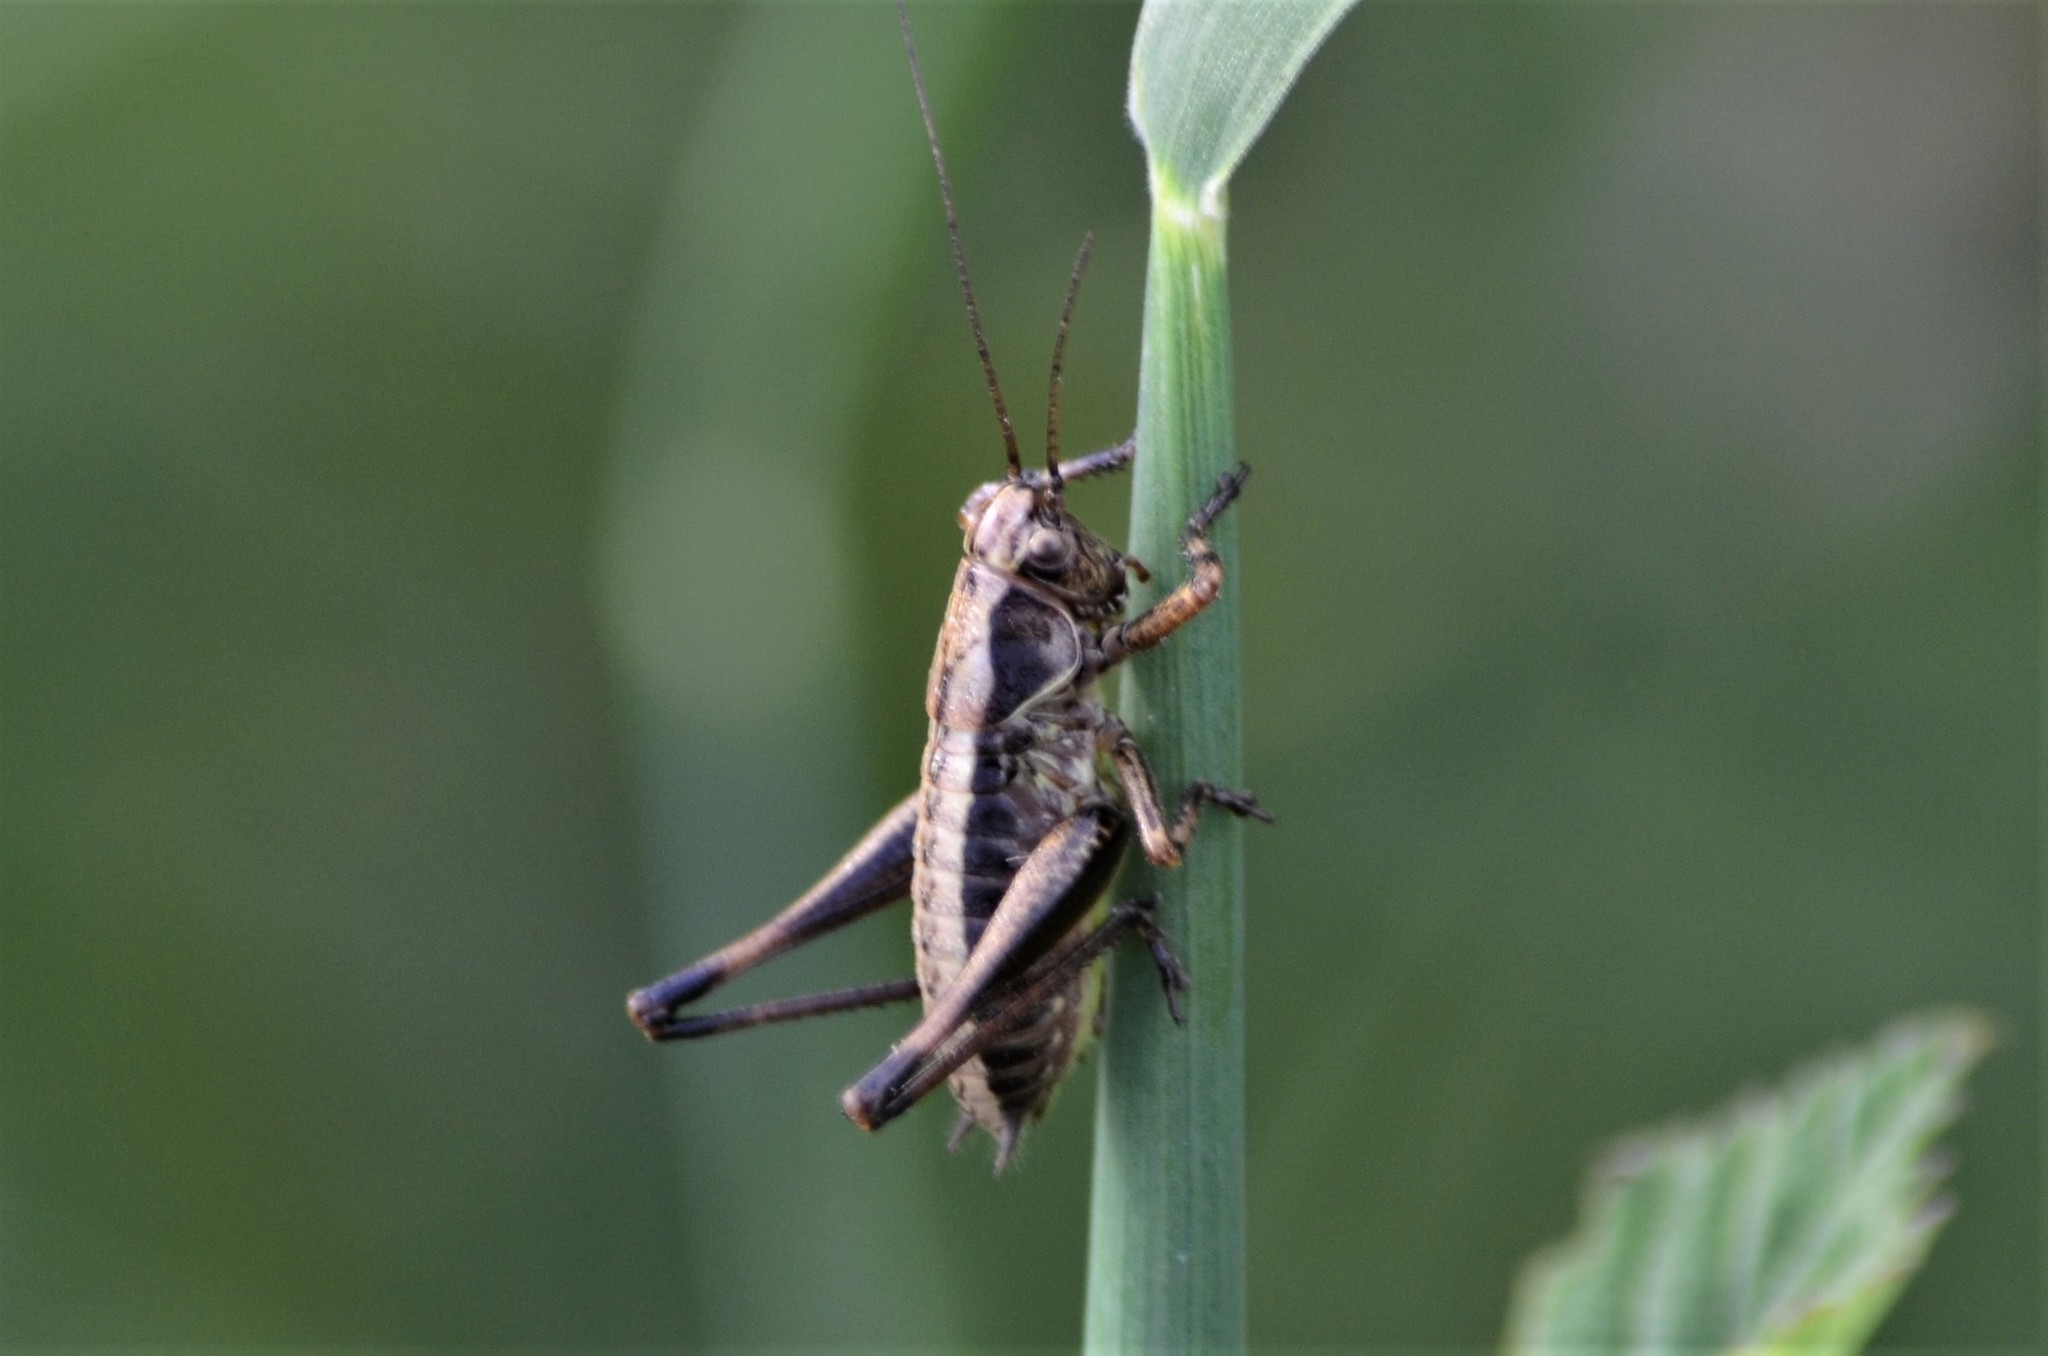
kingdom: Animalia
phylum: Arthropoda
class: Insecta
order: Orthoptera
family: Tettigoniidae
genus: Pholidoptera
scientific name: Pholidoptera griseoaptera
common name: Dark bush-cricket
